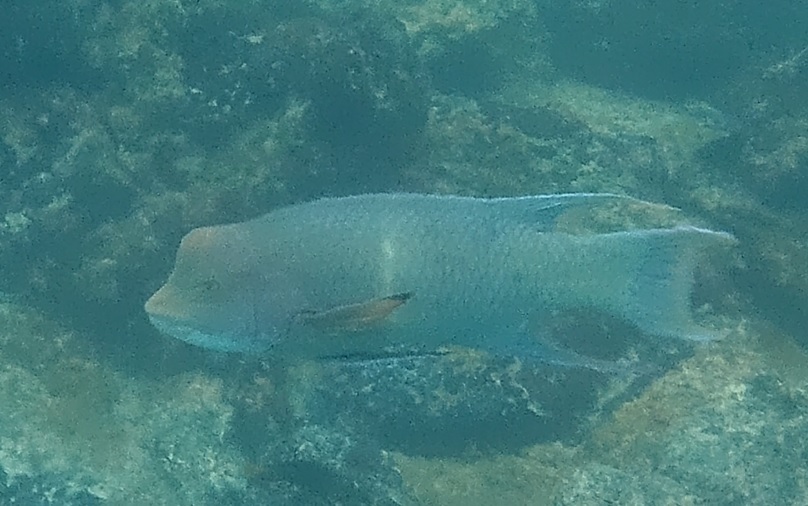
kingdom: Animalia
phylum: Chordata
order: Perciformes
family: Labridae
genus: Bodianus
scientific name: Bodianus diplotaenia
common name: Mexican hogfish
